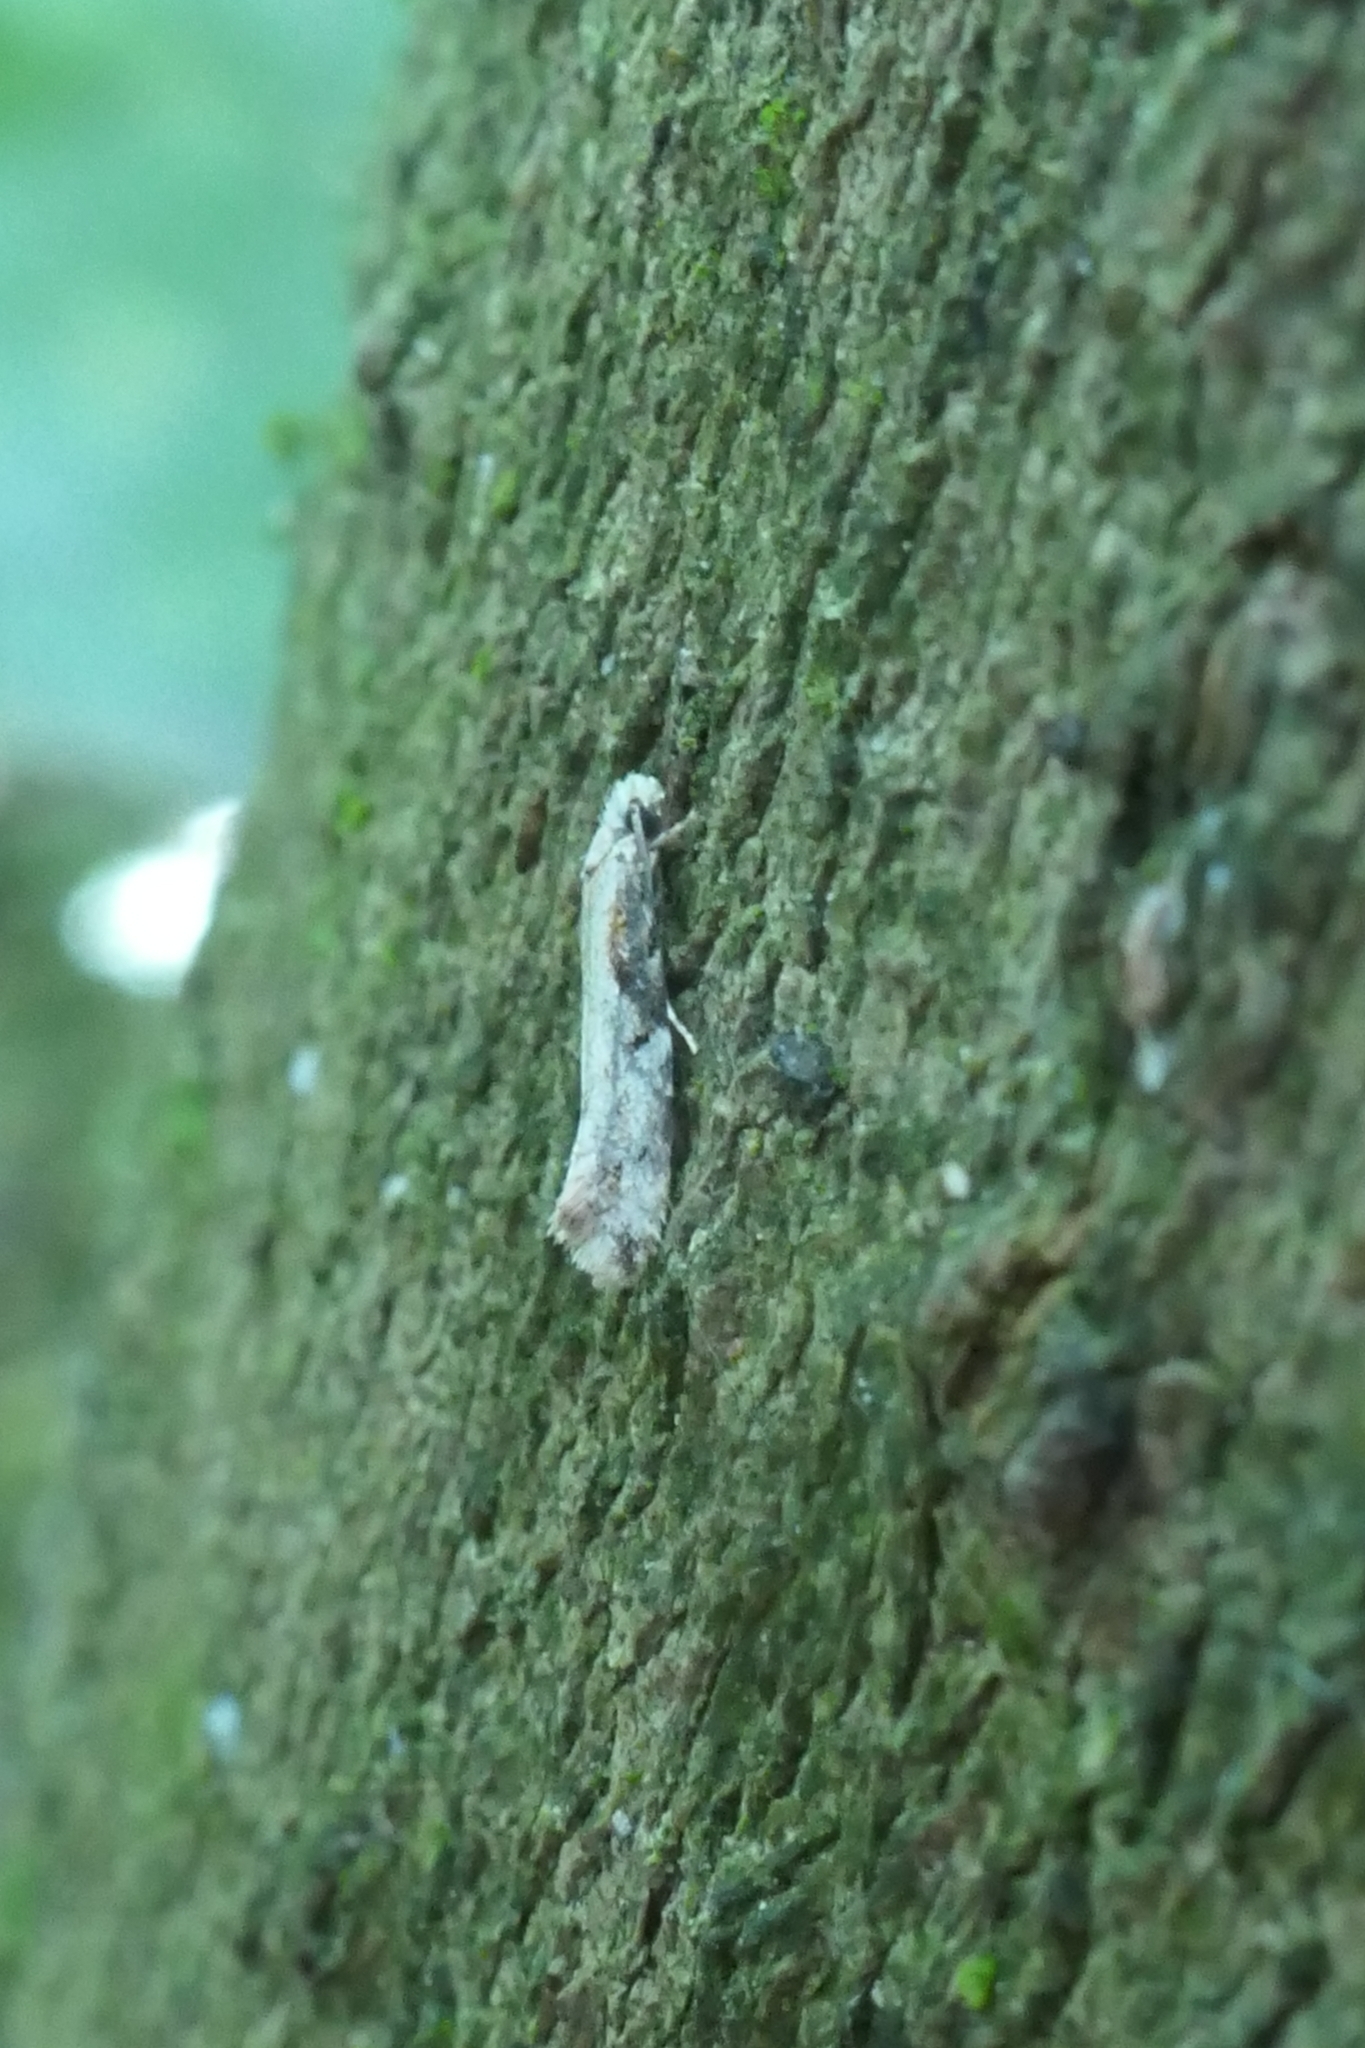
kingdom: Animalia
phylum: Arthropoda
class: Insecta
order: Lepidoptera
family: Tineidae
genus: Crypsitricha
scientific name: Crypsitricha pharotoma
